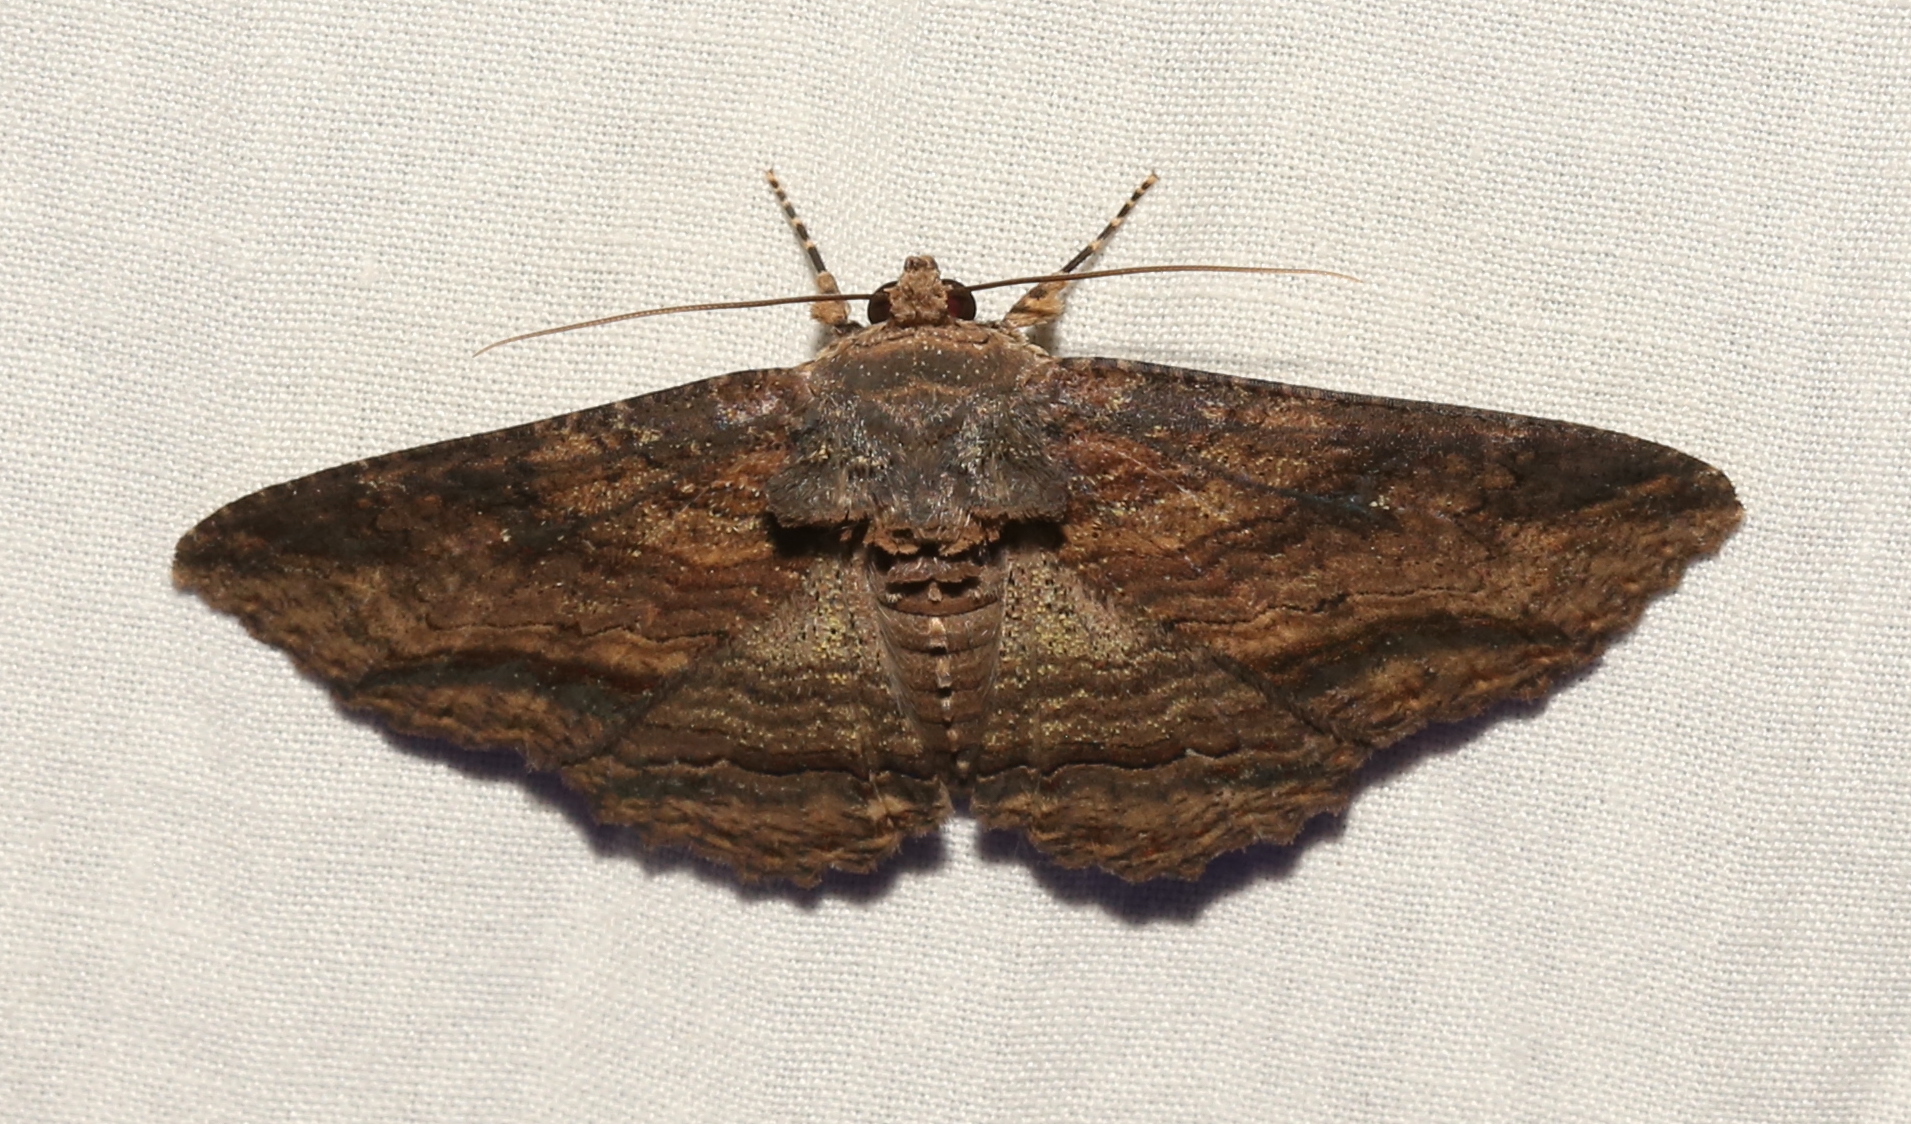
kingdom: Animalia
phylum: Arthropoda
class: Insecta
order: Lepidoptera
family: Erebidae
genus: Zale
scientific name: Zale lunata
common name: Lunate zale moth
